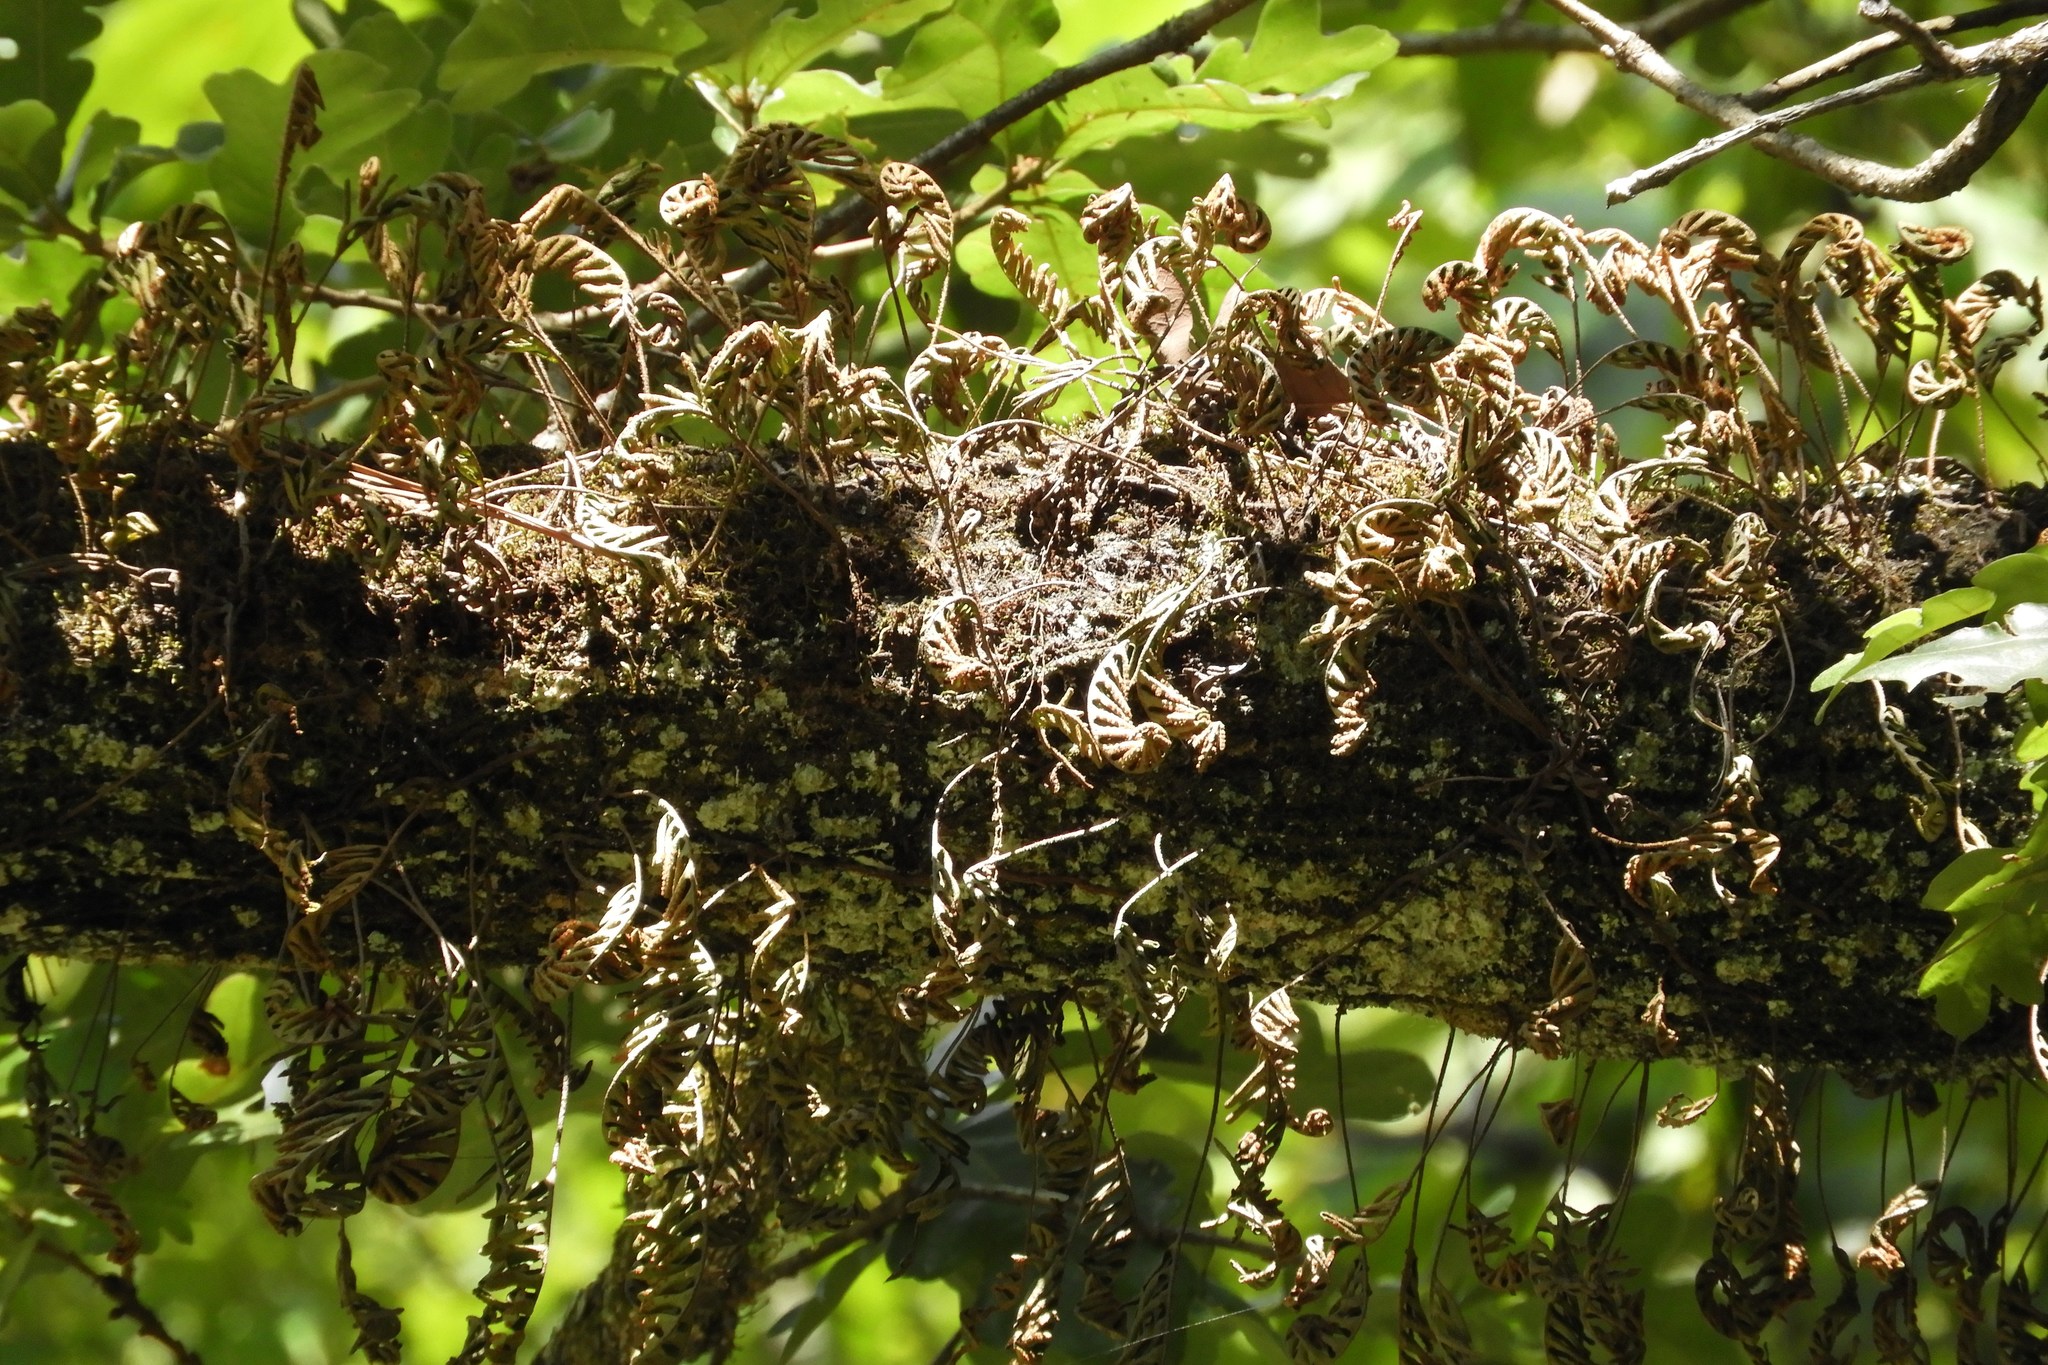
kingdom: Plantae
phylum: Tracheophyta
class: Polypodiopsida
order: Polypodiales
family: Polypodiaceae
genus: Pleopeltis
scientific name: Pleopeltis michauxiana
